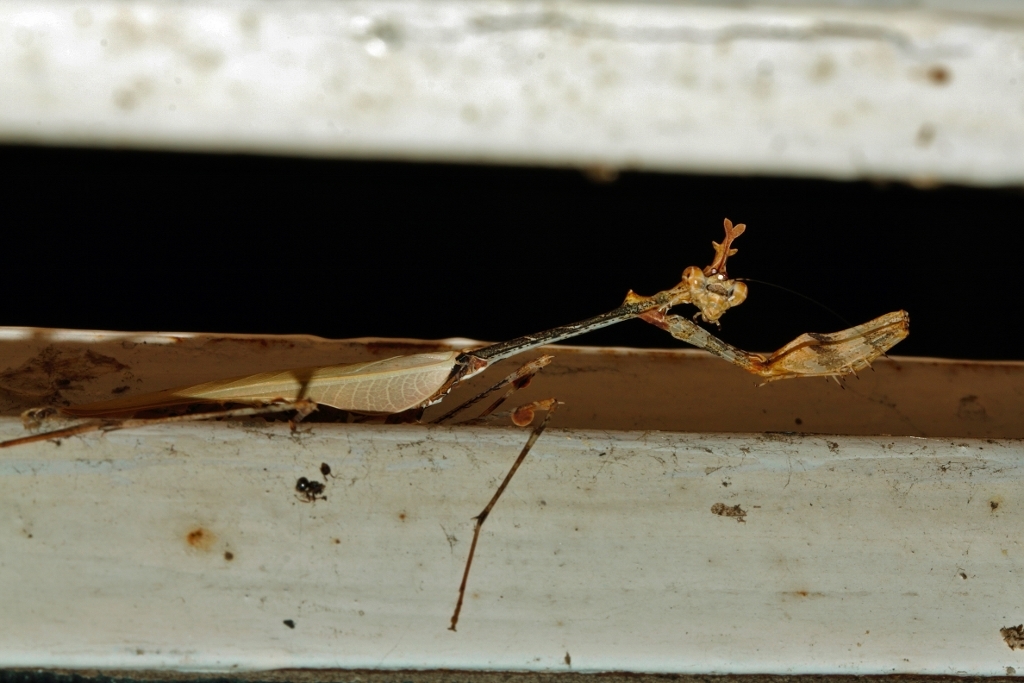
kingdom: Animalia
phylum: Arthropoda
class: Insecta
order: Mantodea
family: Hymenopodidae
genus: Sibylla
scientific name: Sibylla pretiosa
